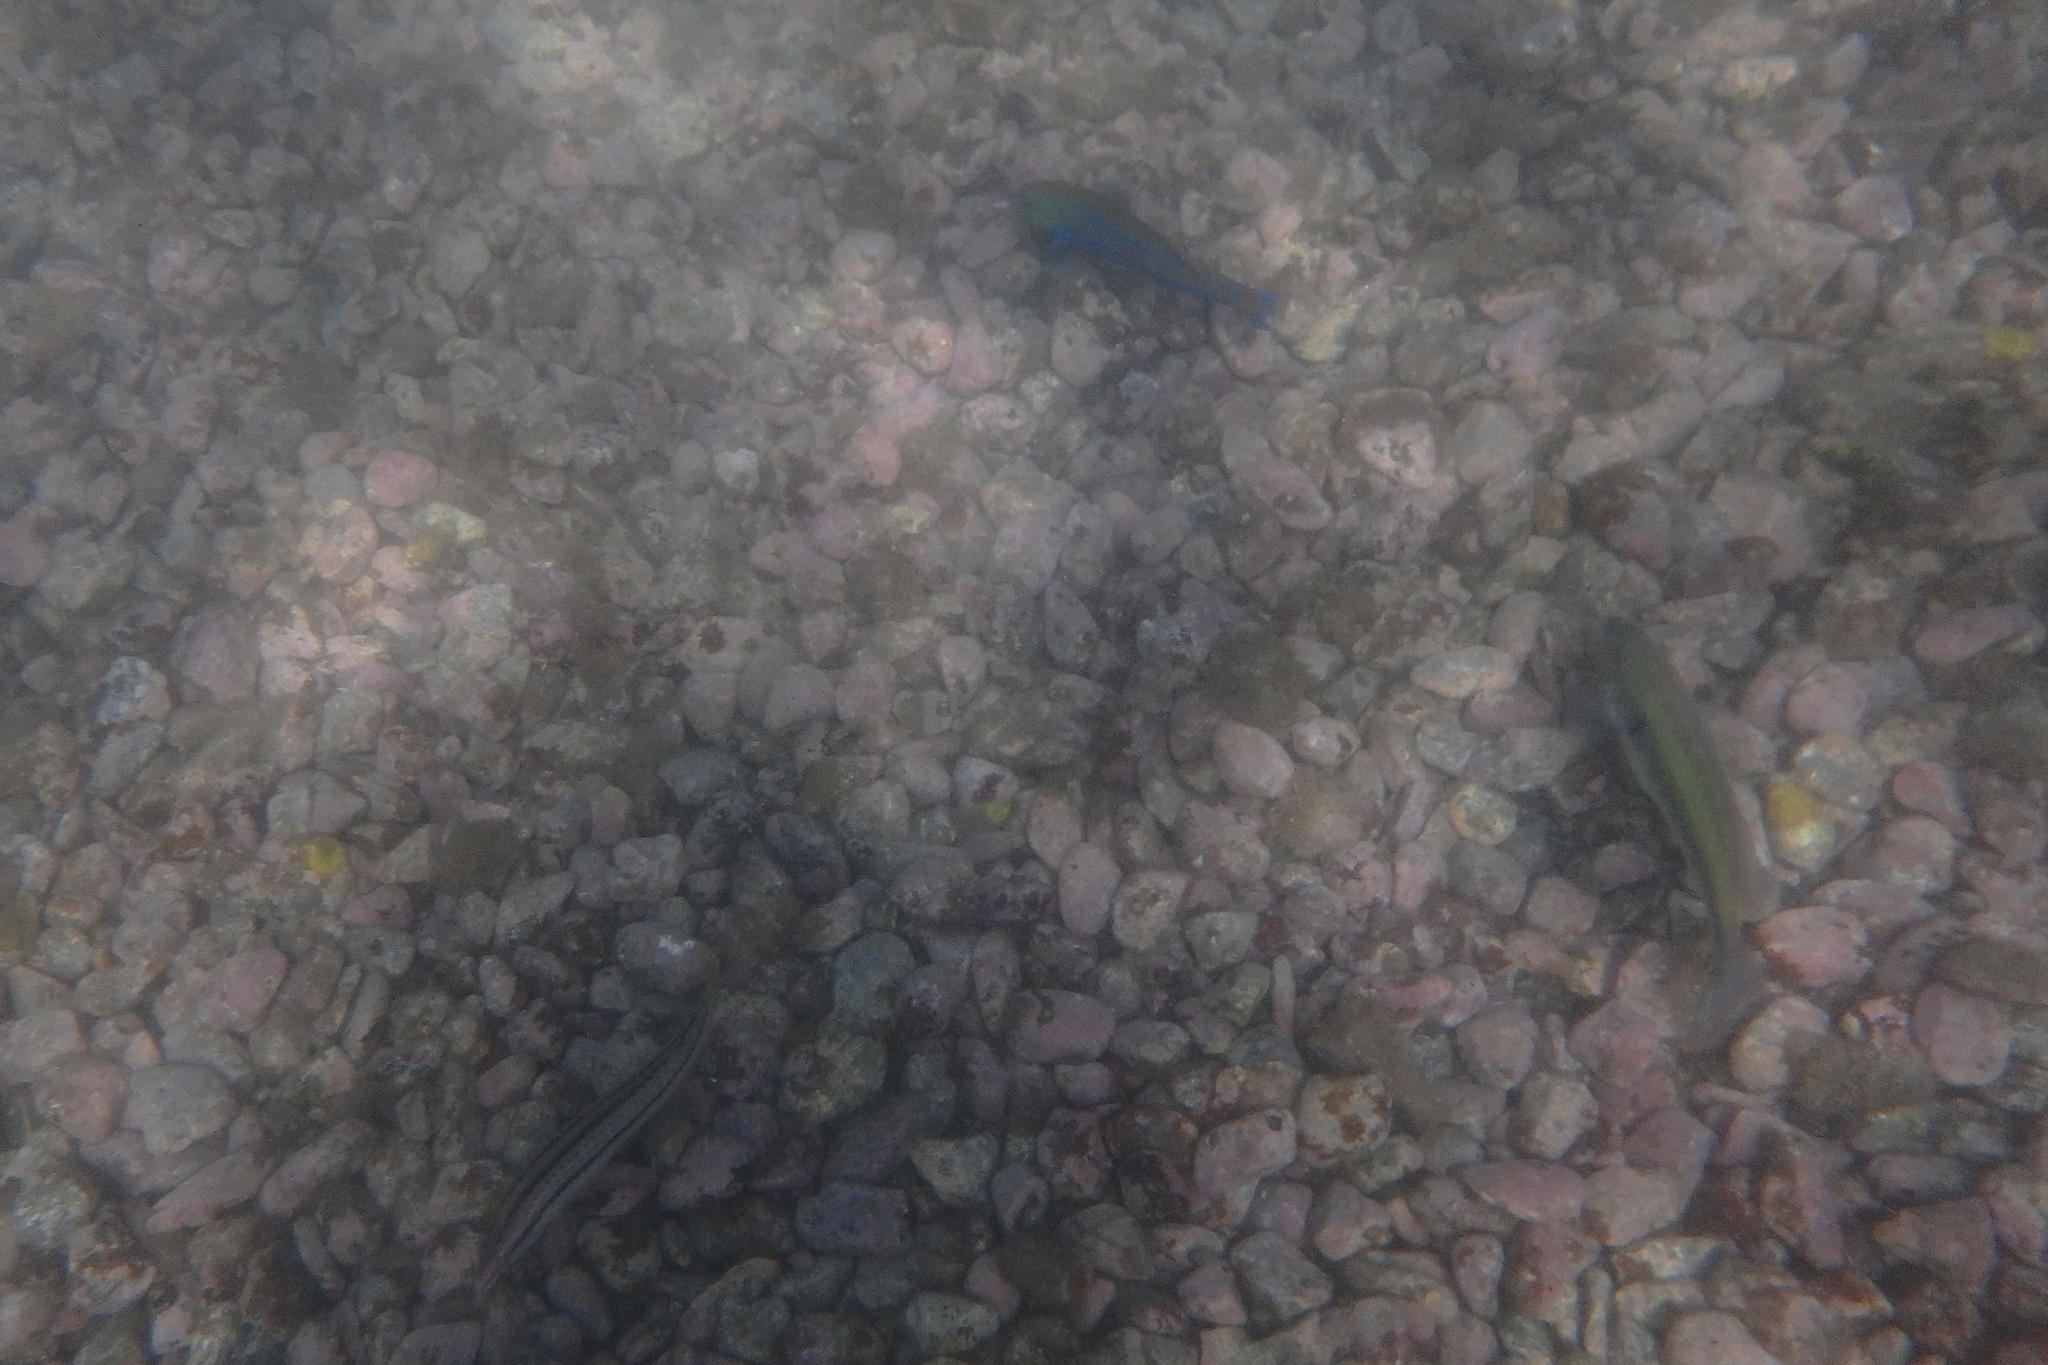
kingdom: Animalia
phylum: Chordata
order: Perciformes
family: Labridae
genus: Thalassoma
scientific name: Thalassoma cupido
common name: Cupid wrasse
